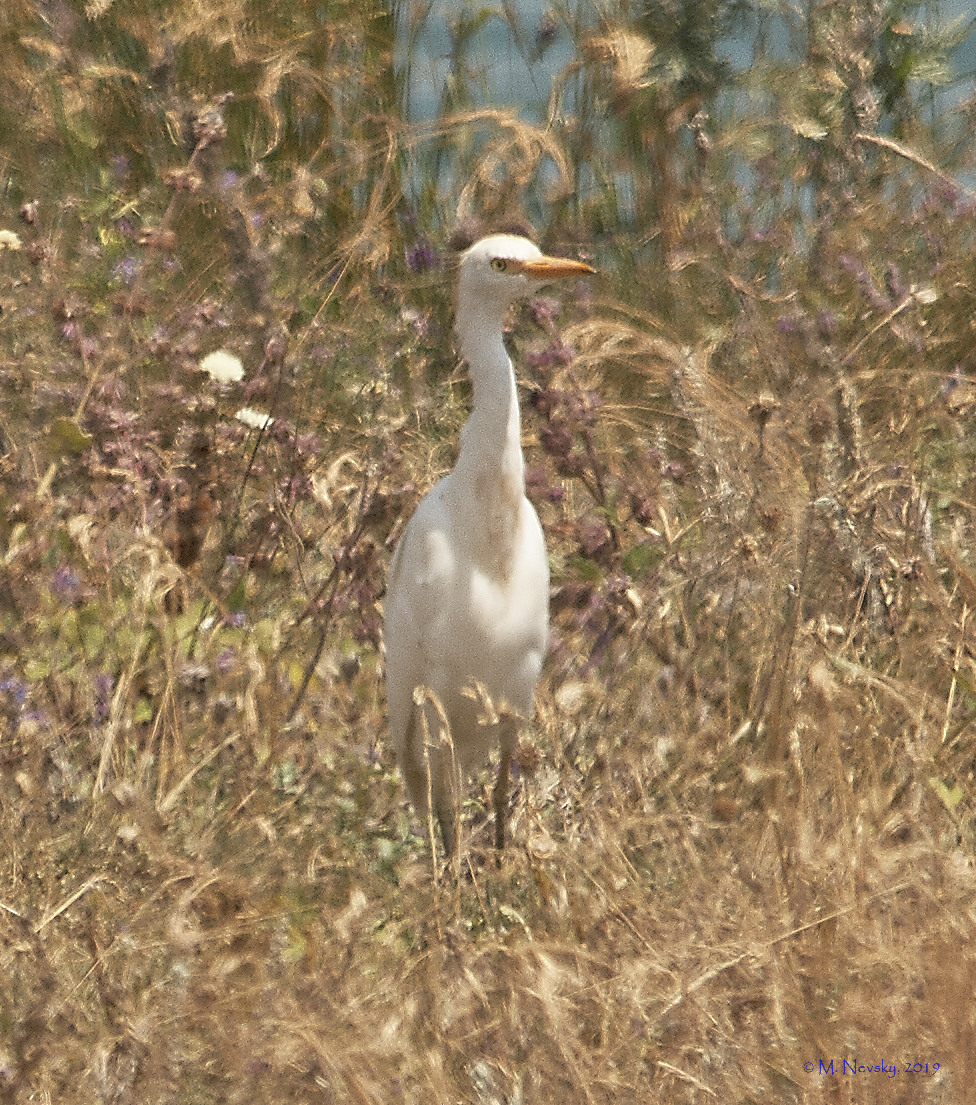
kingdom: Animalia
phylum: Chordata
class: Aves
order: Pelecaniformes
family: Ardeidae
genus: Bubulcus
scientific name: Bubulcus ibis
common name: Cattle egret
